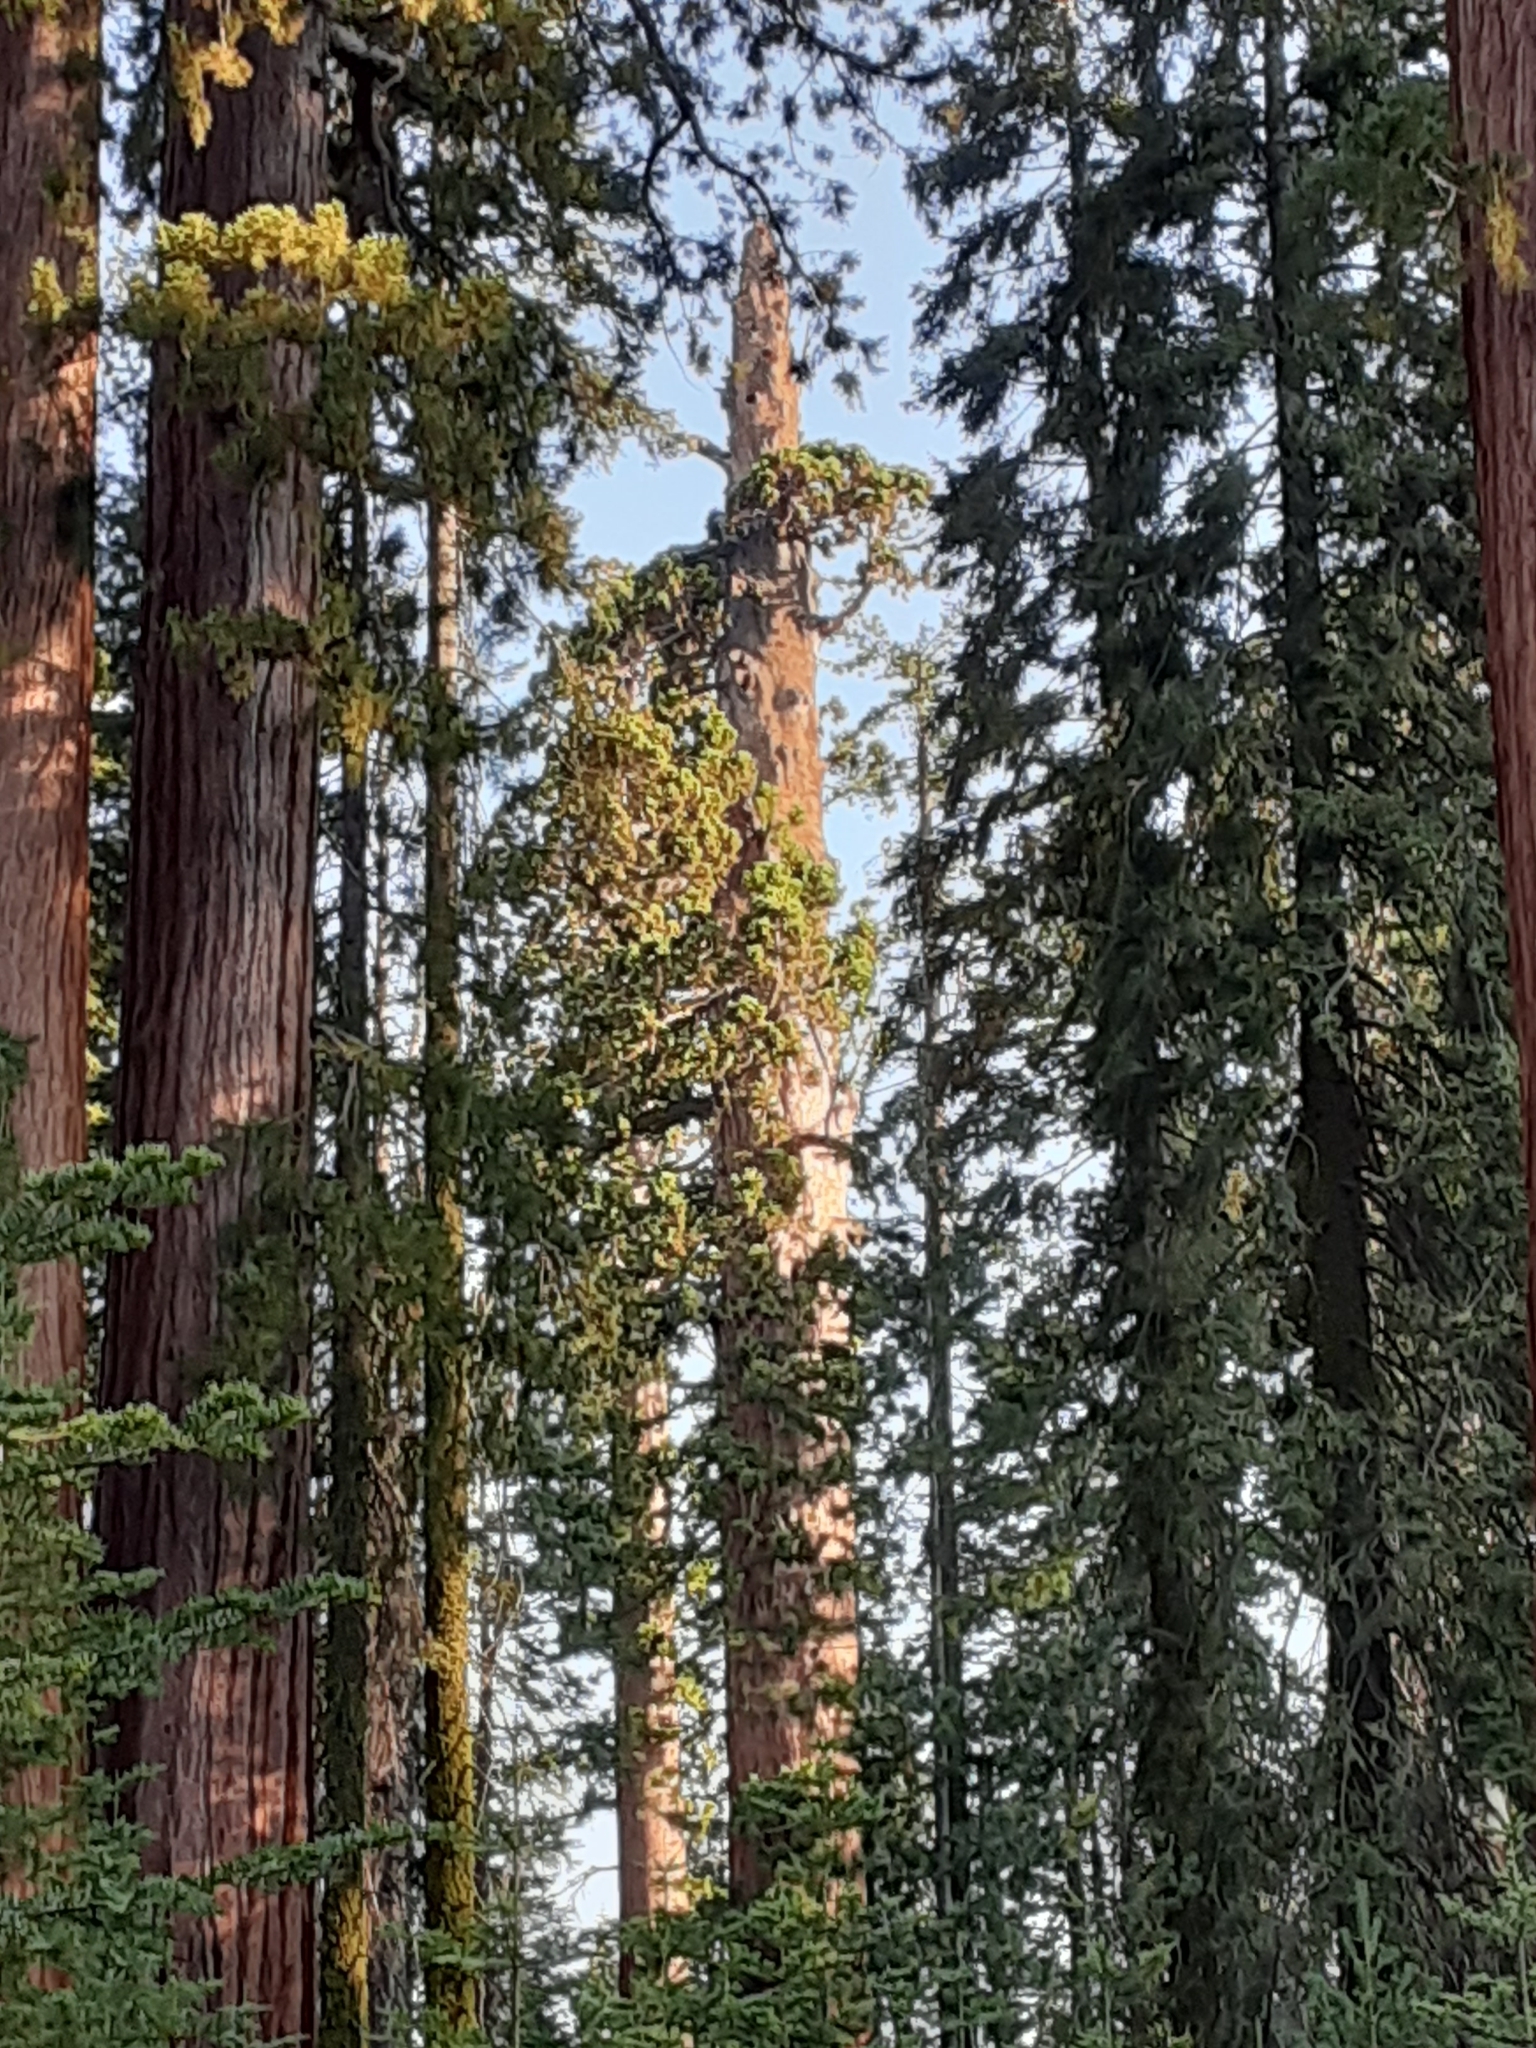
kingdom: Plantae
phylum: Tracheophyta
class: Pinopsida
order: Pinales
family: Cupressaceae
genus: Sequoiadendron
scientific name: Sequoiadendron giganteum
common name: Wellingtonia
